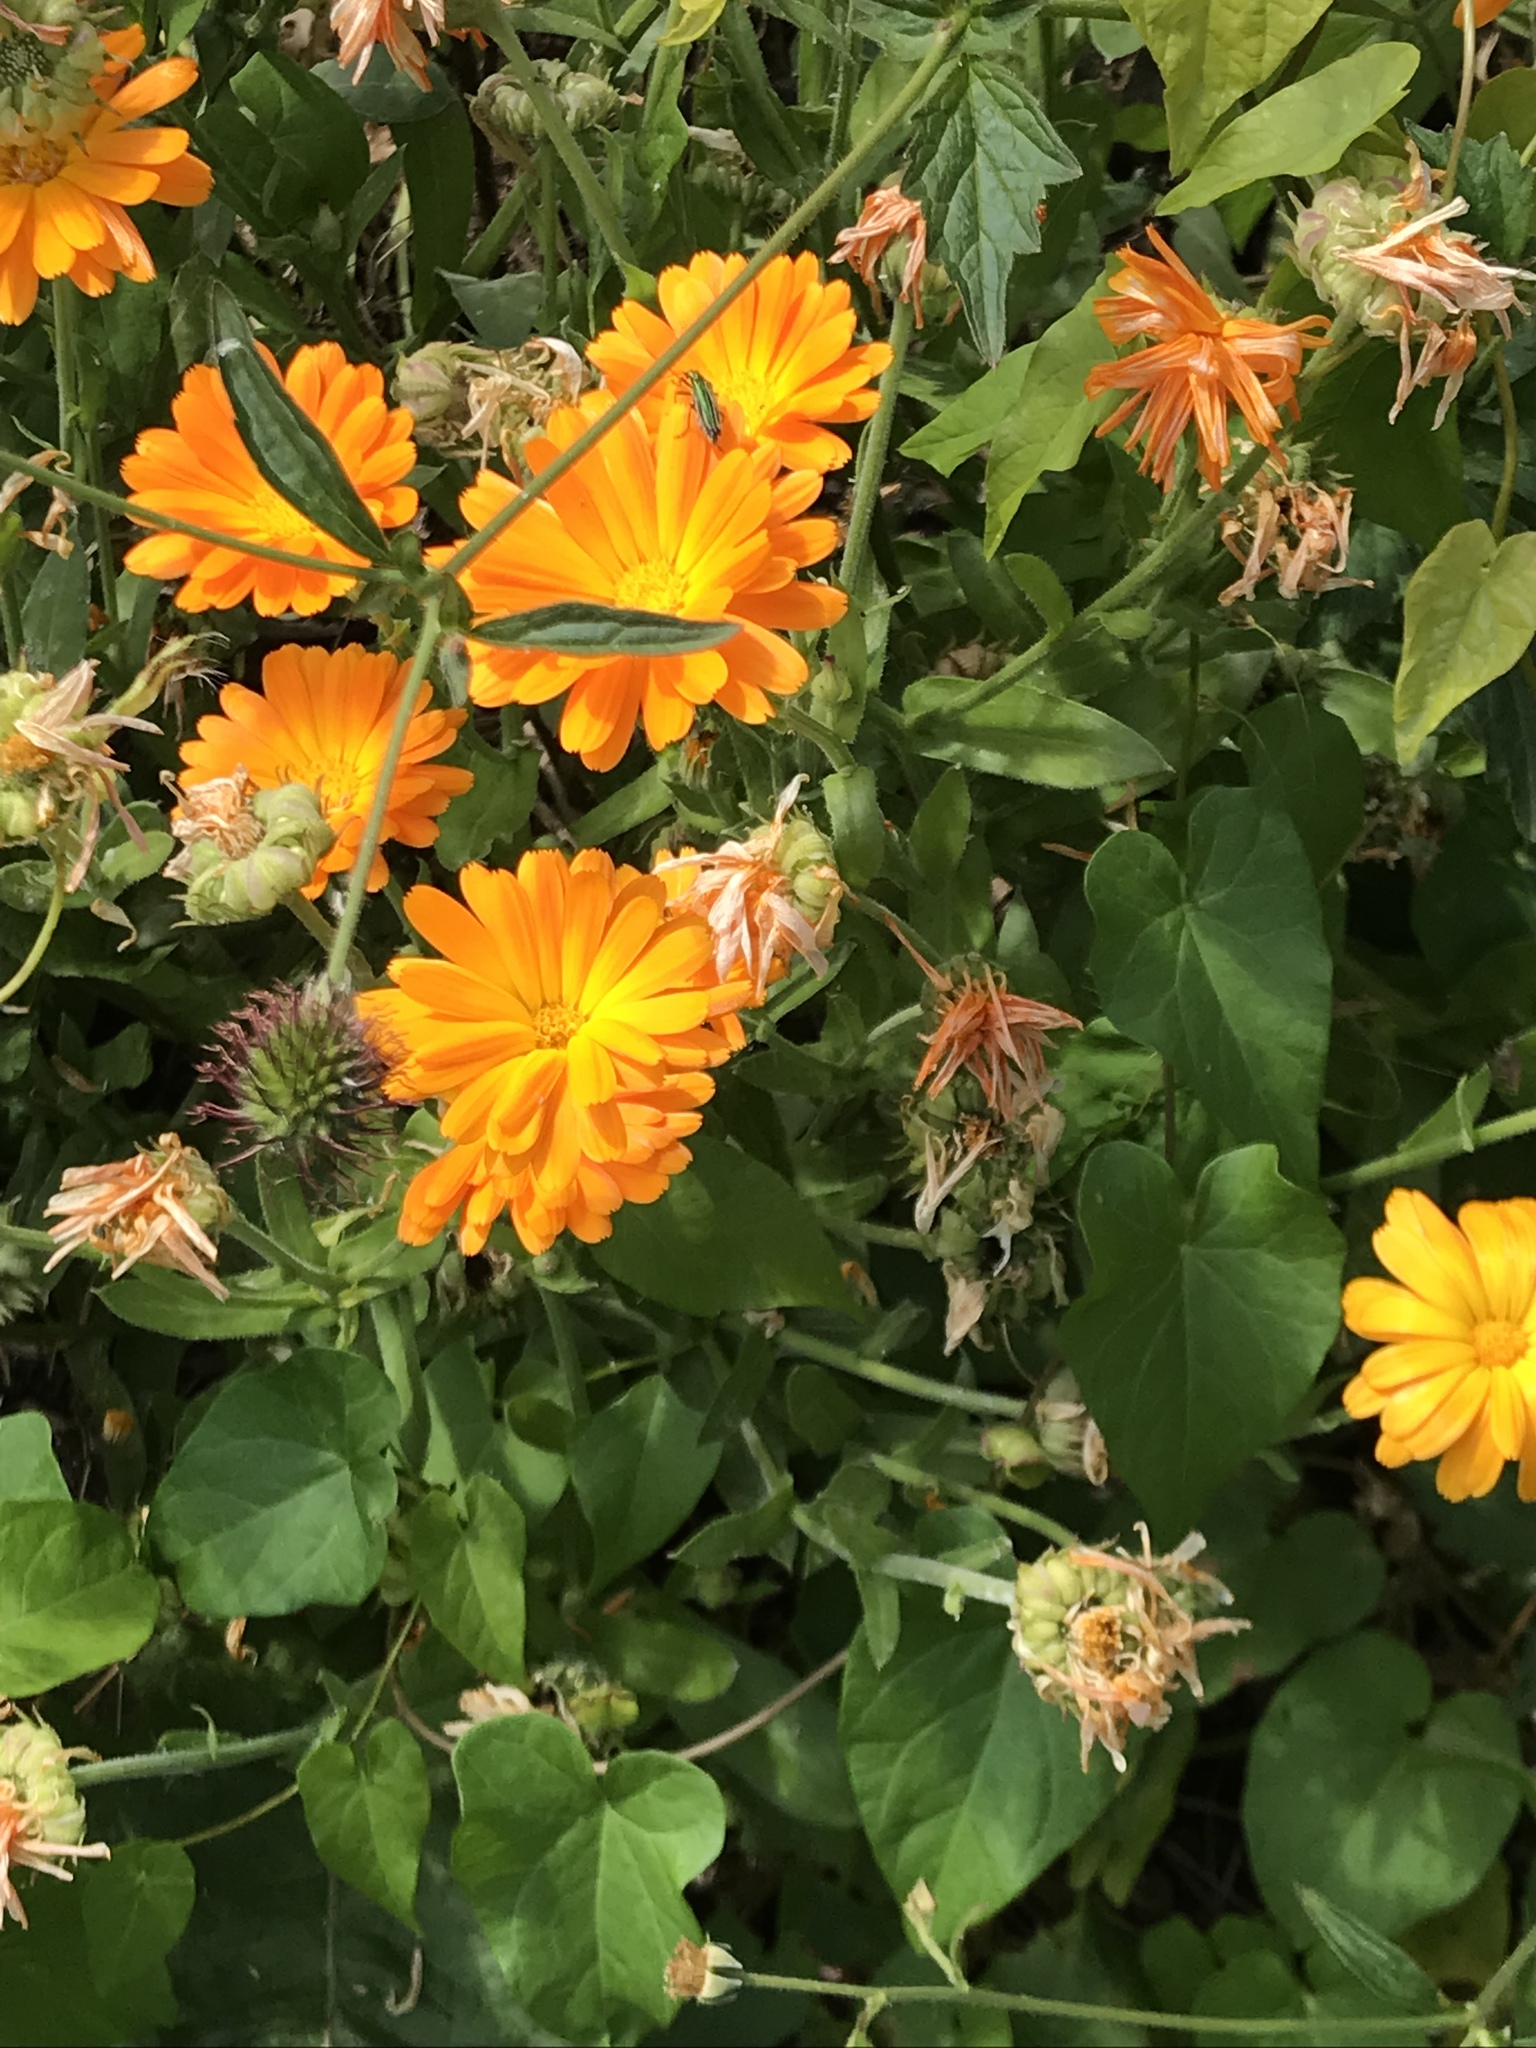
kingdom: Plantae
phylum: Tracheophyta
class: Magnoliopsida
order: Asterales
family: Asteraceae
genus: Calendula
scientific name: Calendula officinalis
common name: Pot marigold
